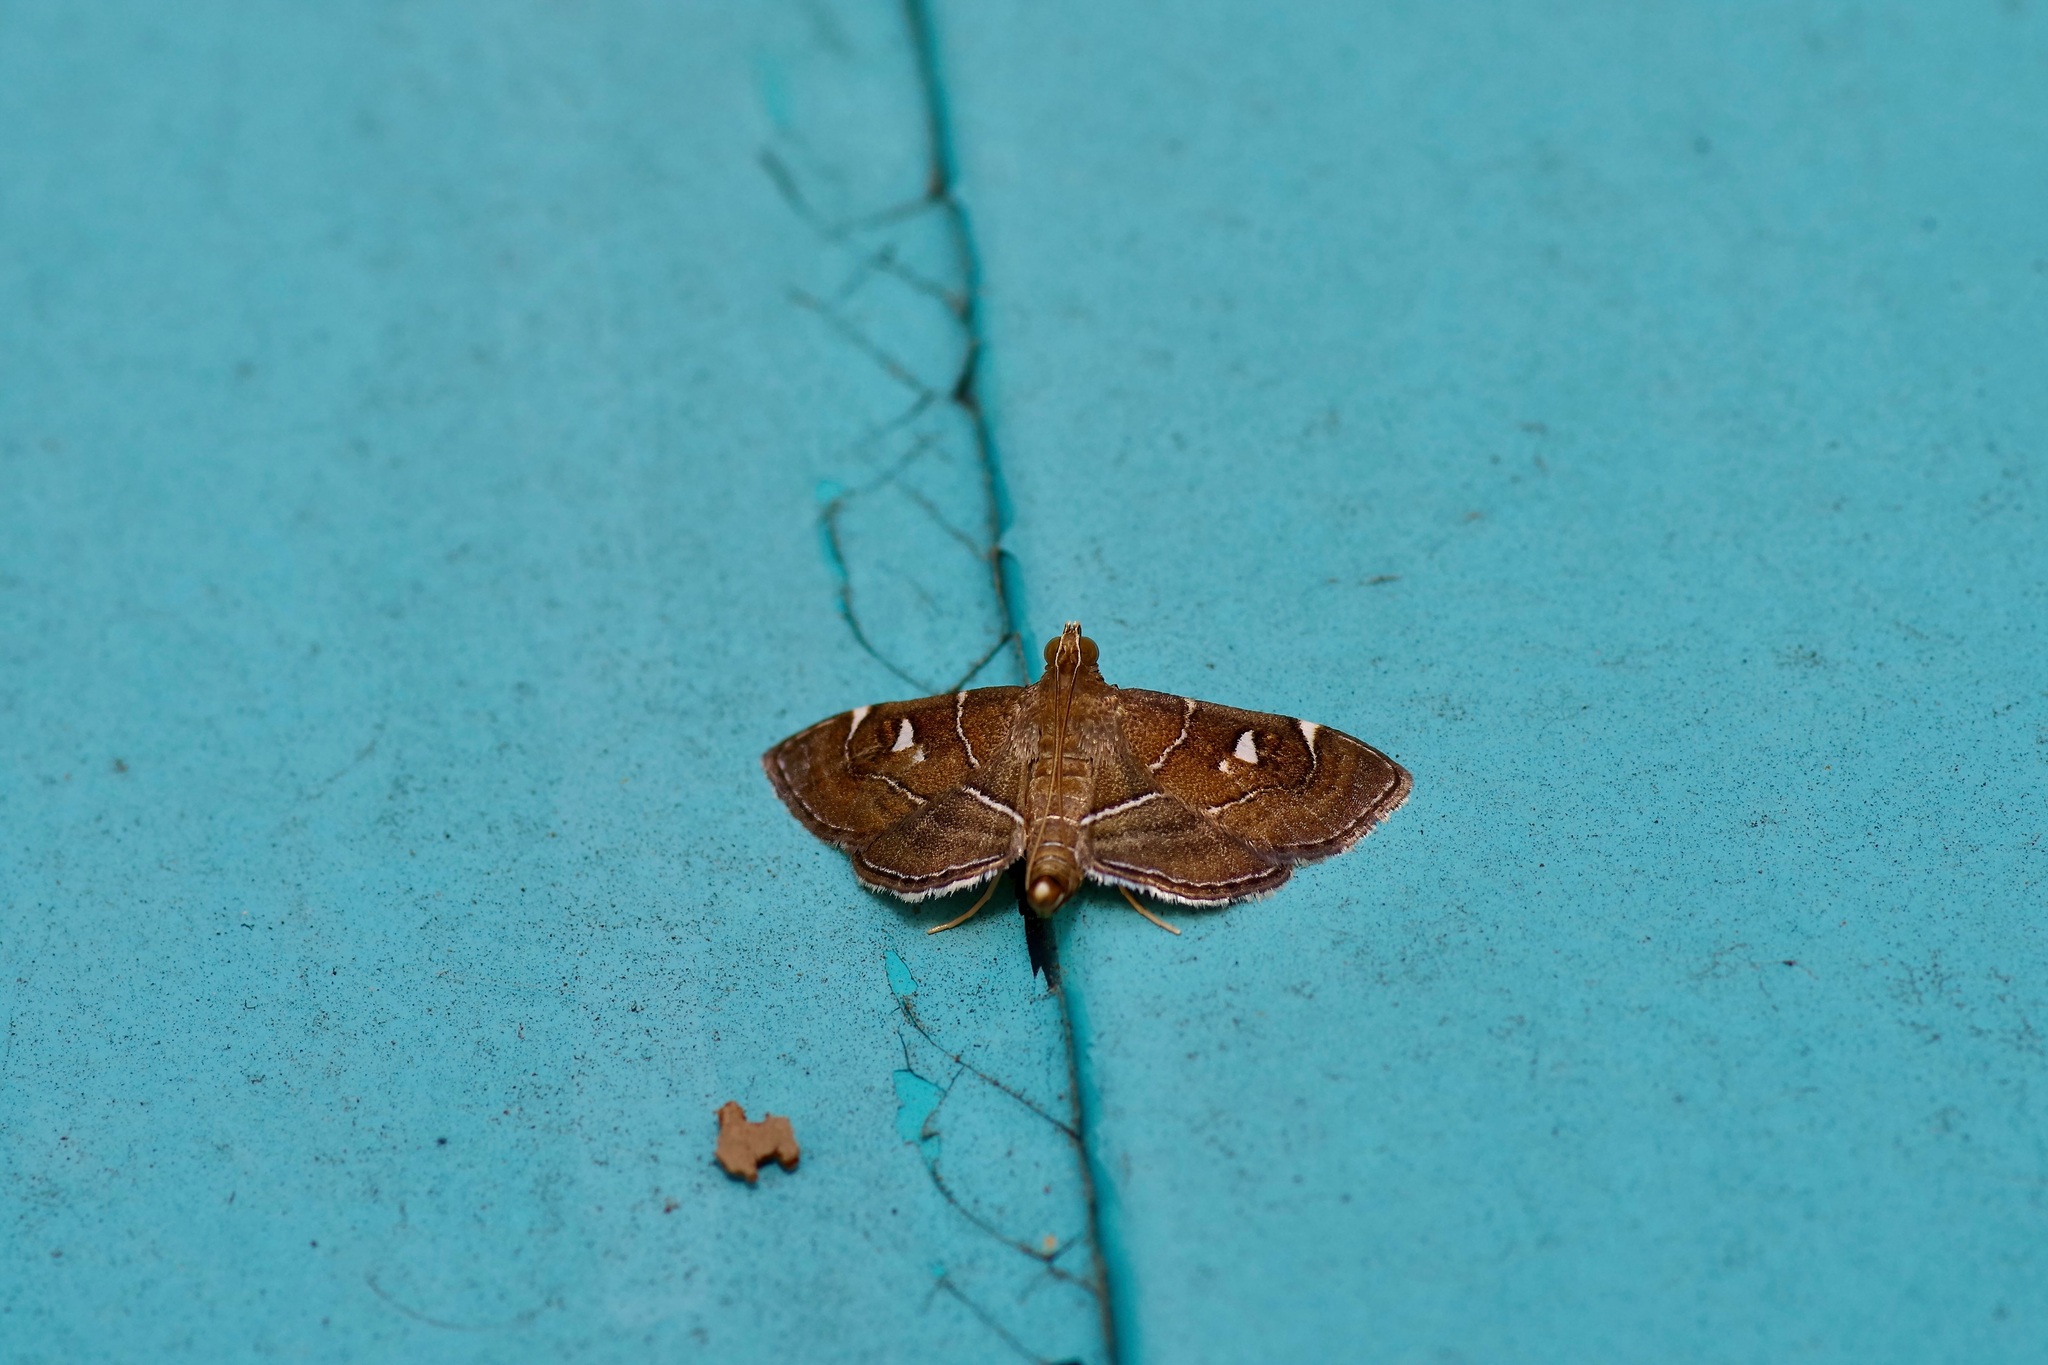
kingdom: Animalia
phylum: Arthropoda
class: Insecta
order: Lepidoptera
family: Crambidae
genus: Lamprosema
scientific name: Lamprosema victoriae
